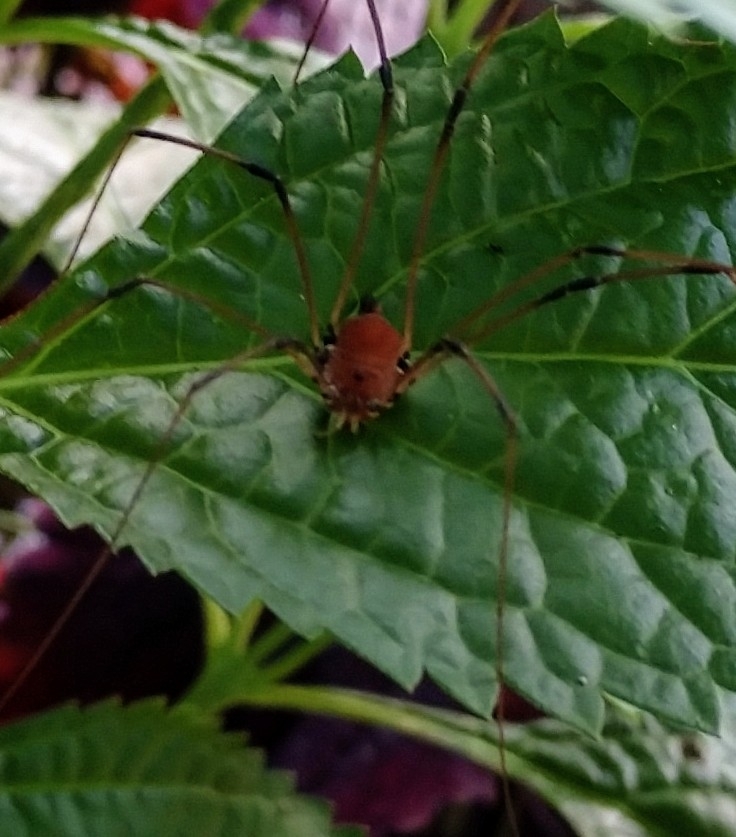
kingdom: Animalia
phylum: Arthropoda
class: Arachnida
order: Opiliones
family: Sclerosomatidae
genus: Leiobunum
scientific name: Leiobunum ventricosum
